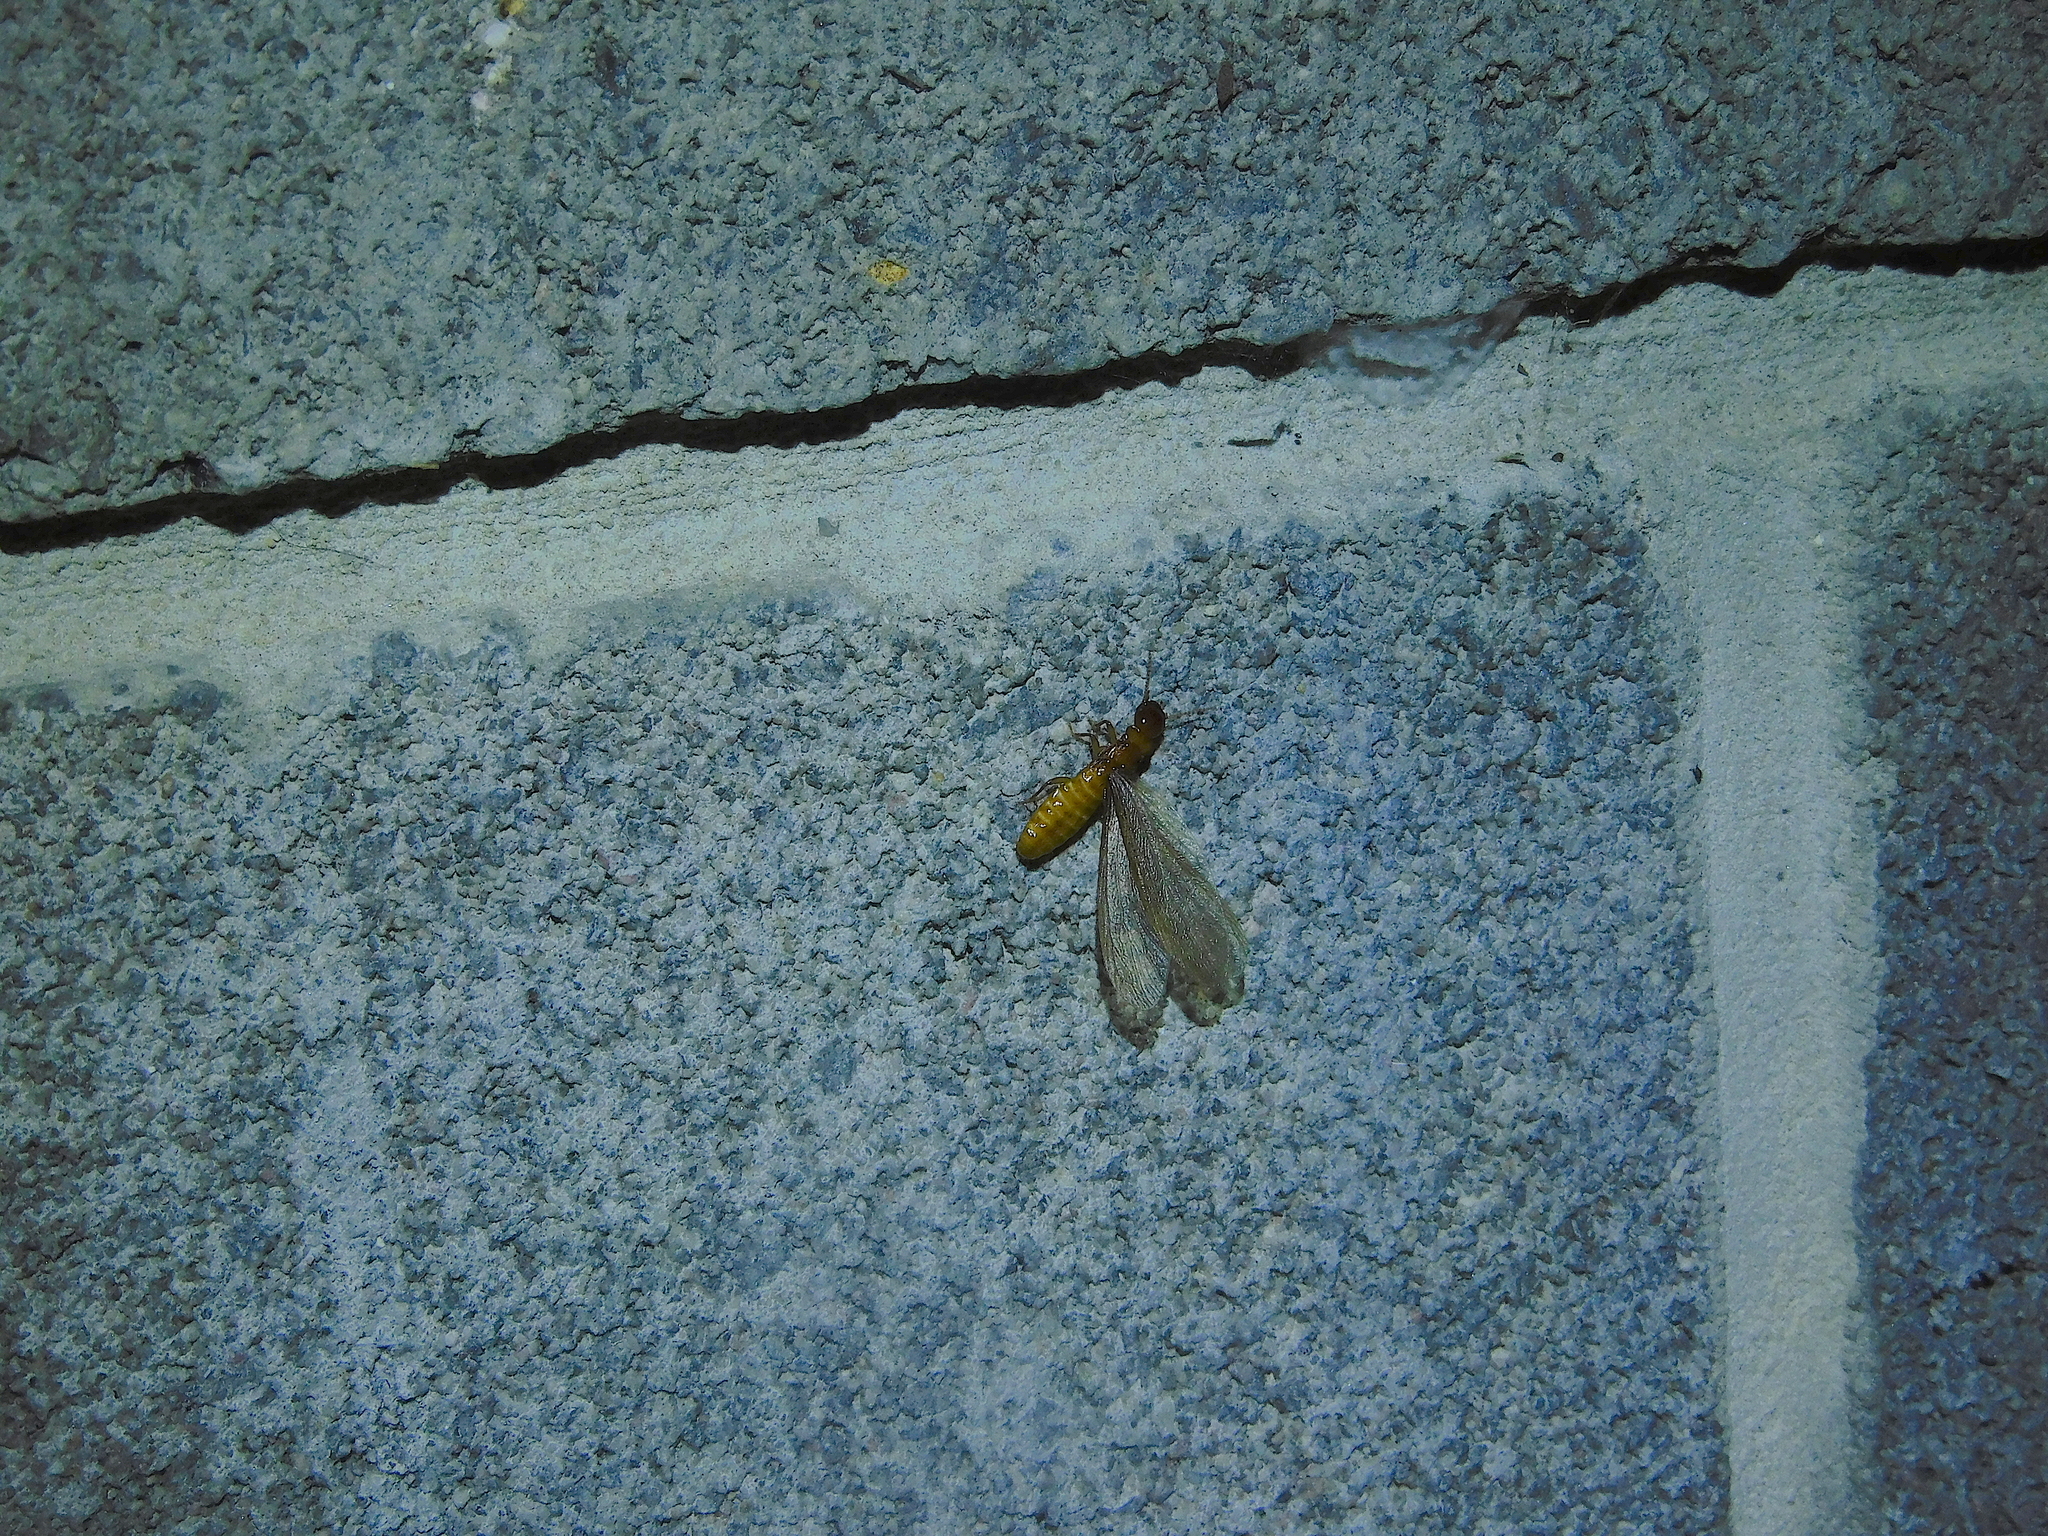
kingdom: Animalia
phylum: Arthropoda
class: Insecta
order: Blattodea
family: Stolotermitidae
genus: Porotermes
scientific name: Porotermes adamsoni
